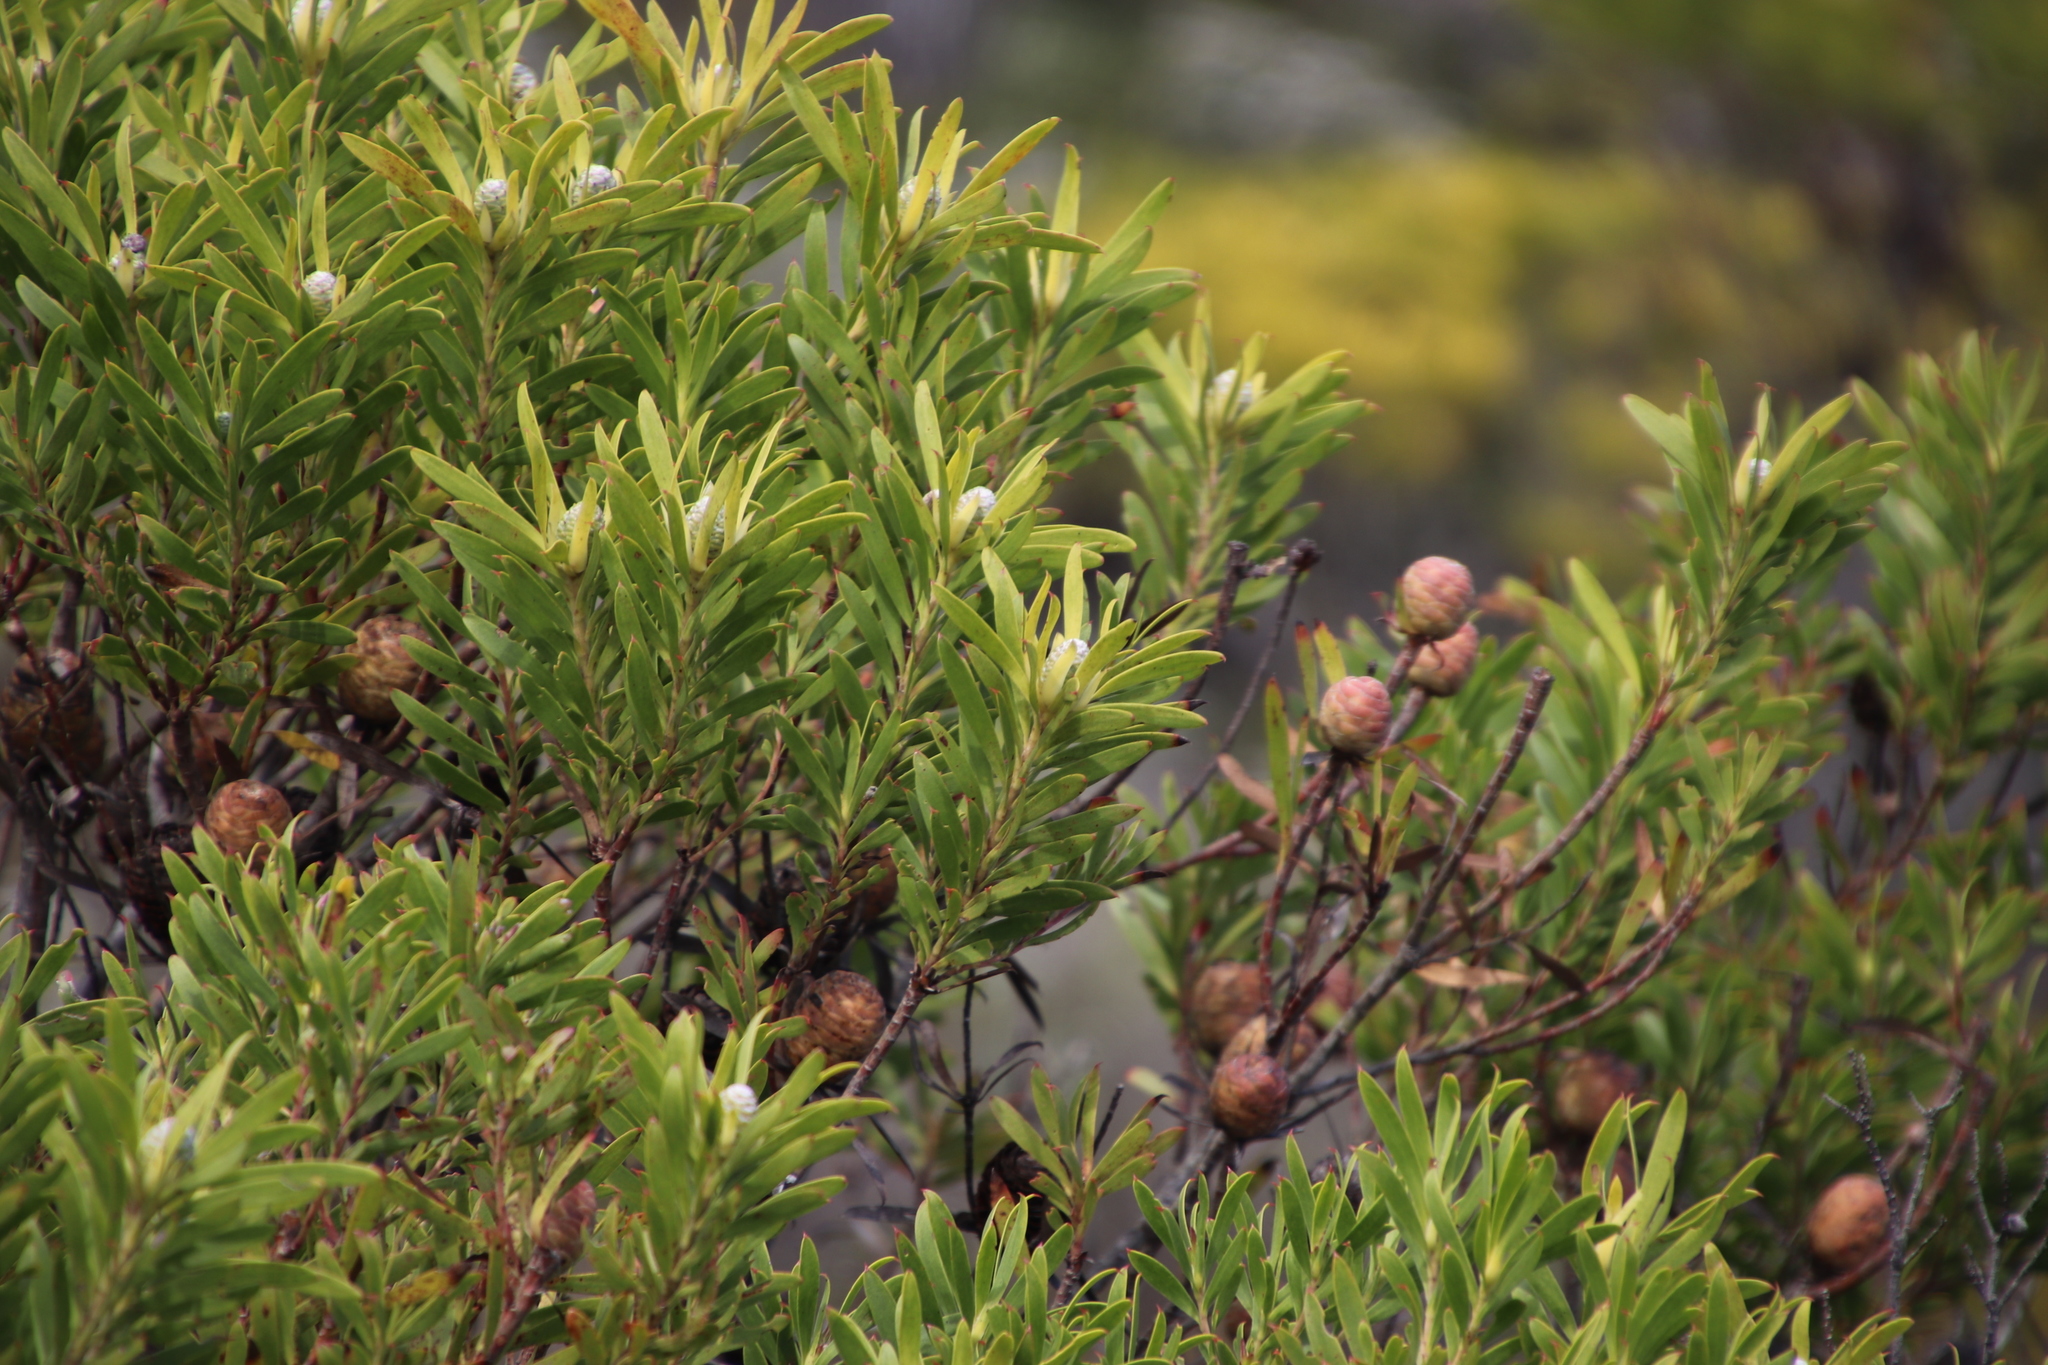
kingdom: Plantae
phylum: Tracheophyta
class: Magnoliopsida
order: Proteales
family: Proteaceae
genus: Leucadendron
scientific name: Leucadendron coniferum
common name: Dune conebush
